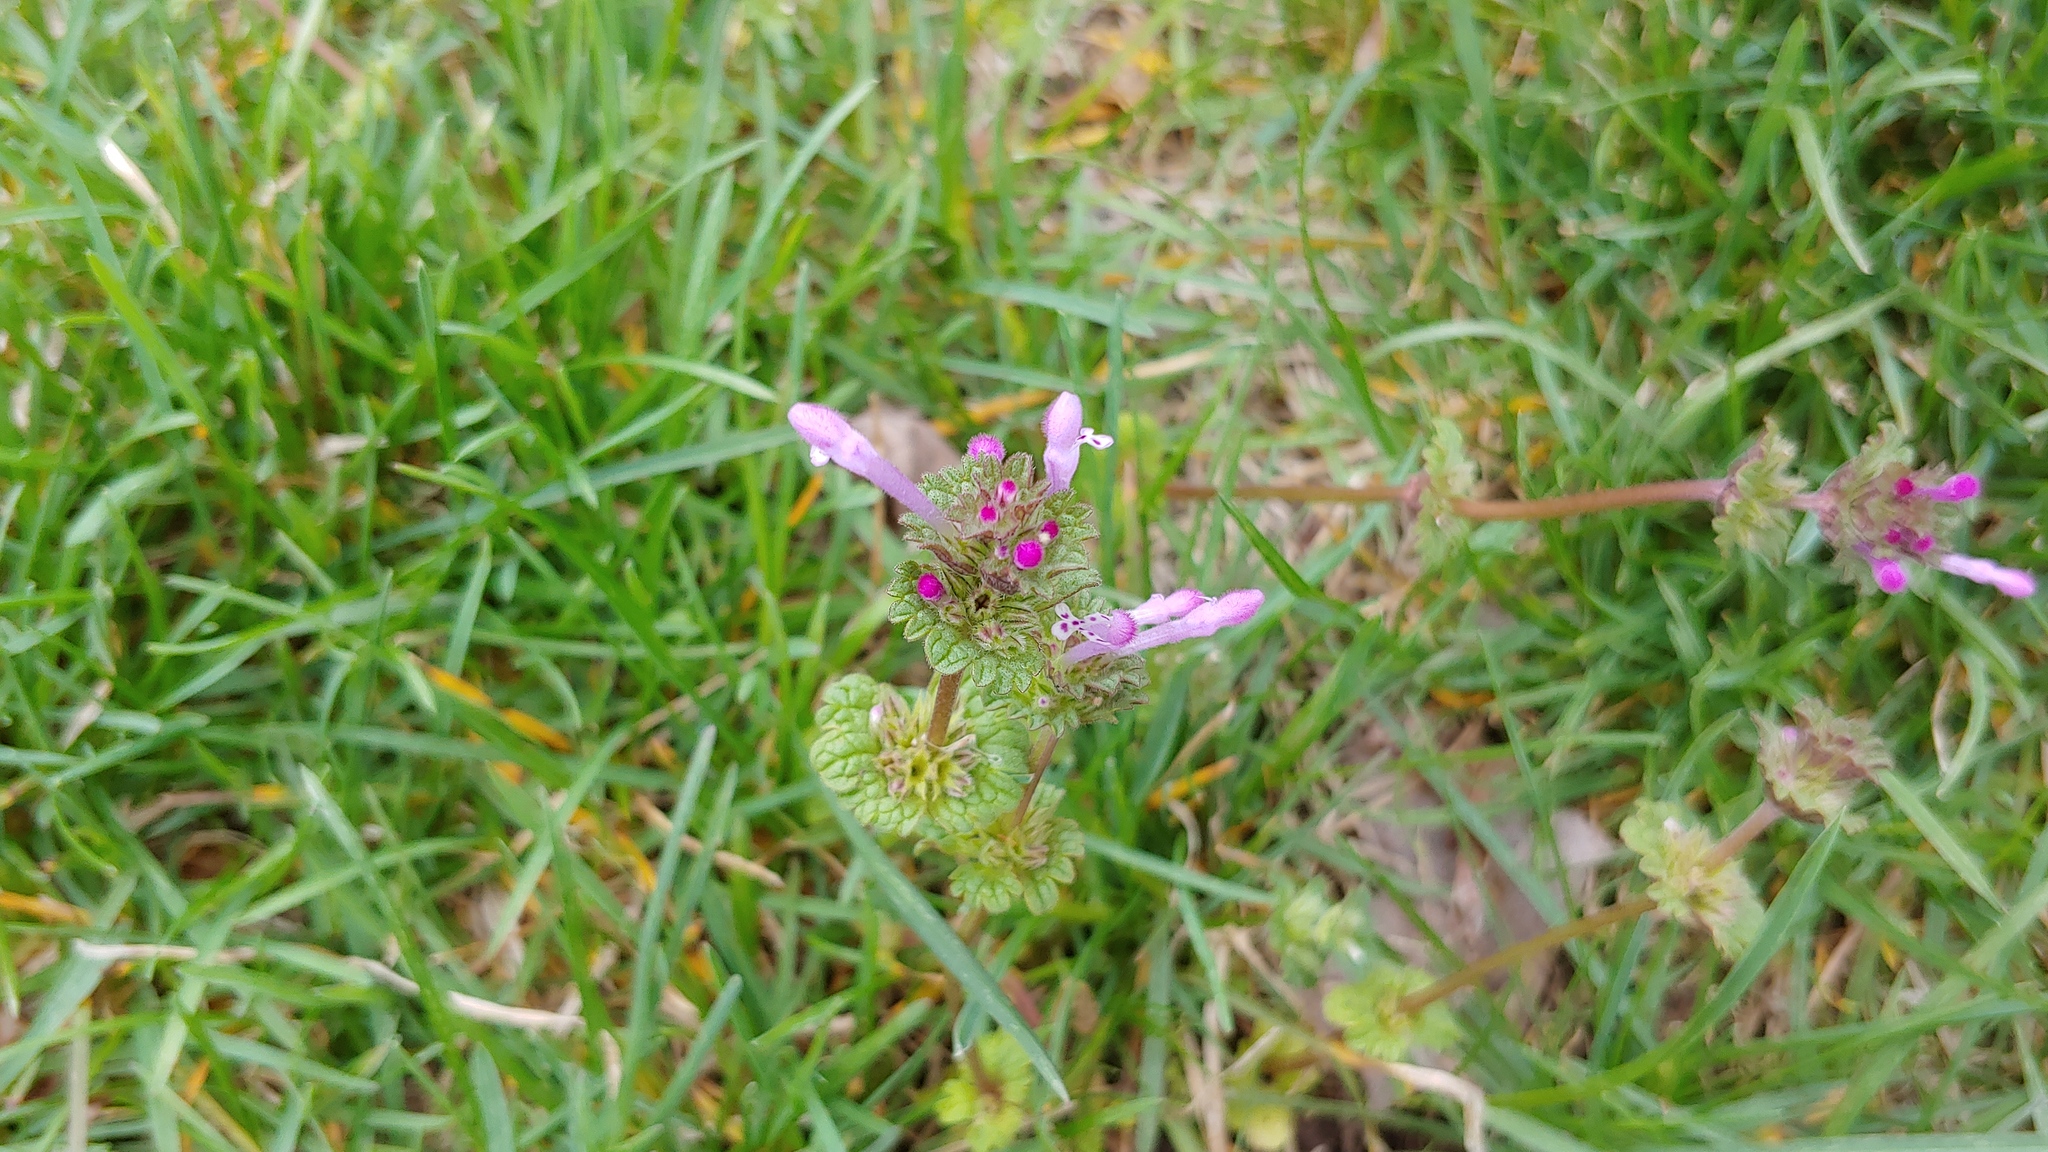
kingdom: Plantae
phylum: Tracheophyta
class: Magnoliopsida
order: Lamiales
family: Lamiaceae
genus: Lamium
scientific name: Lamium amplexicaule
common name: Henbit dead-nettle
